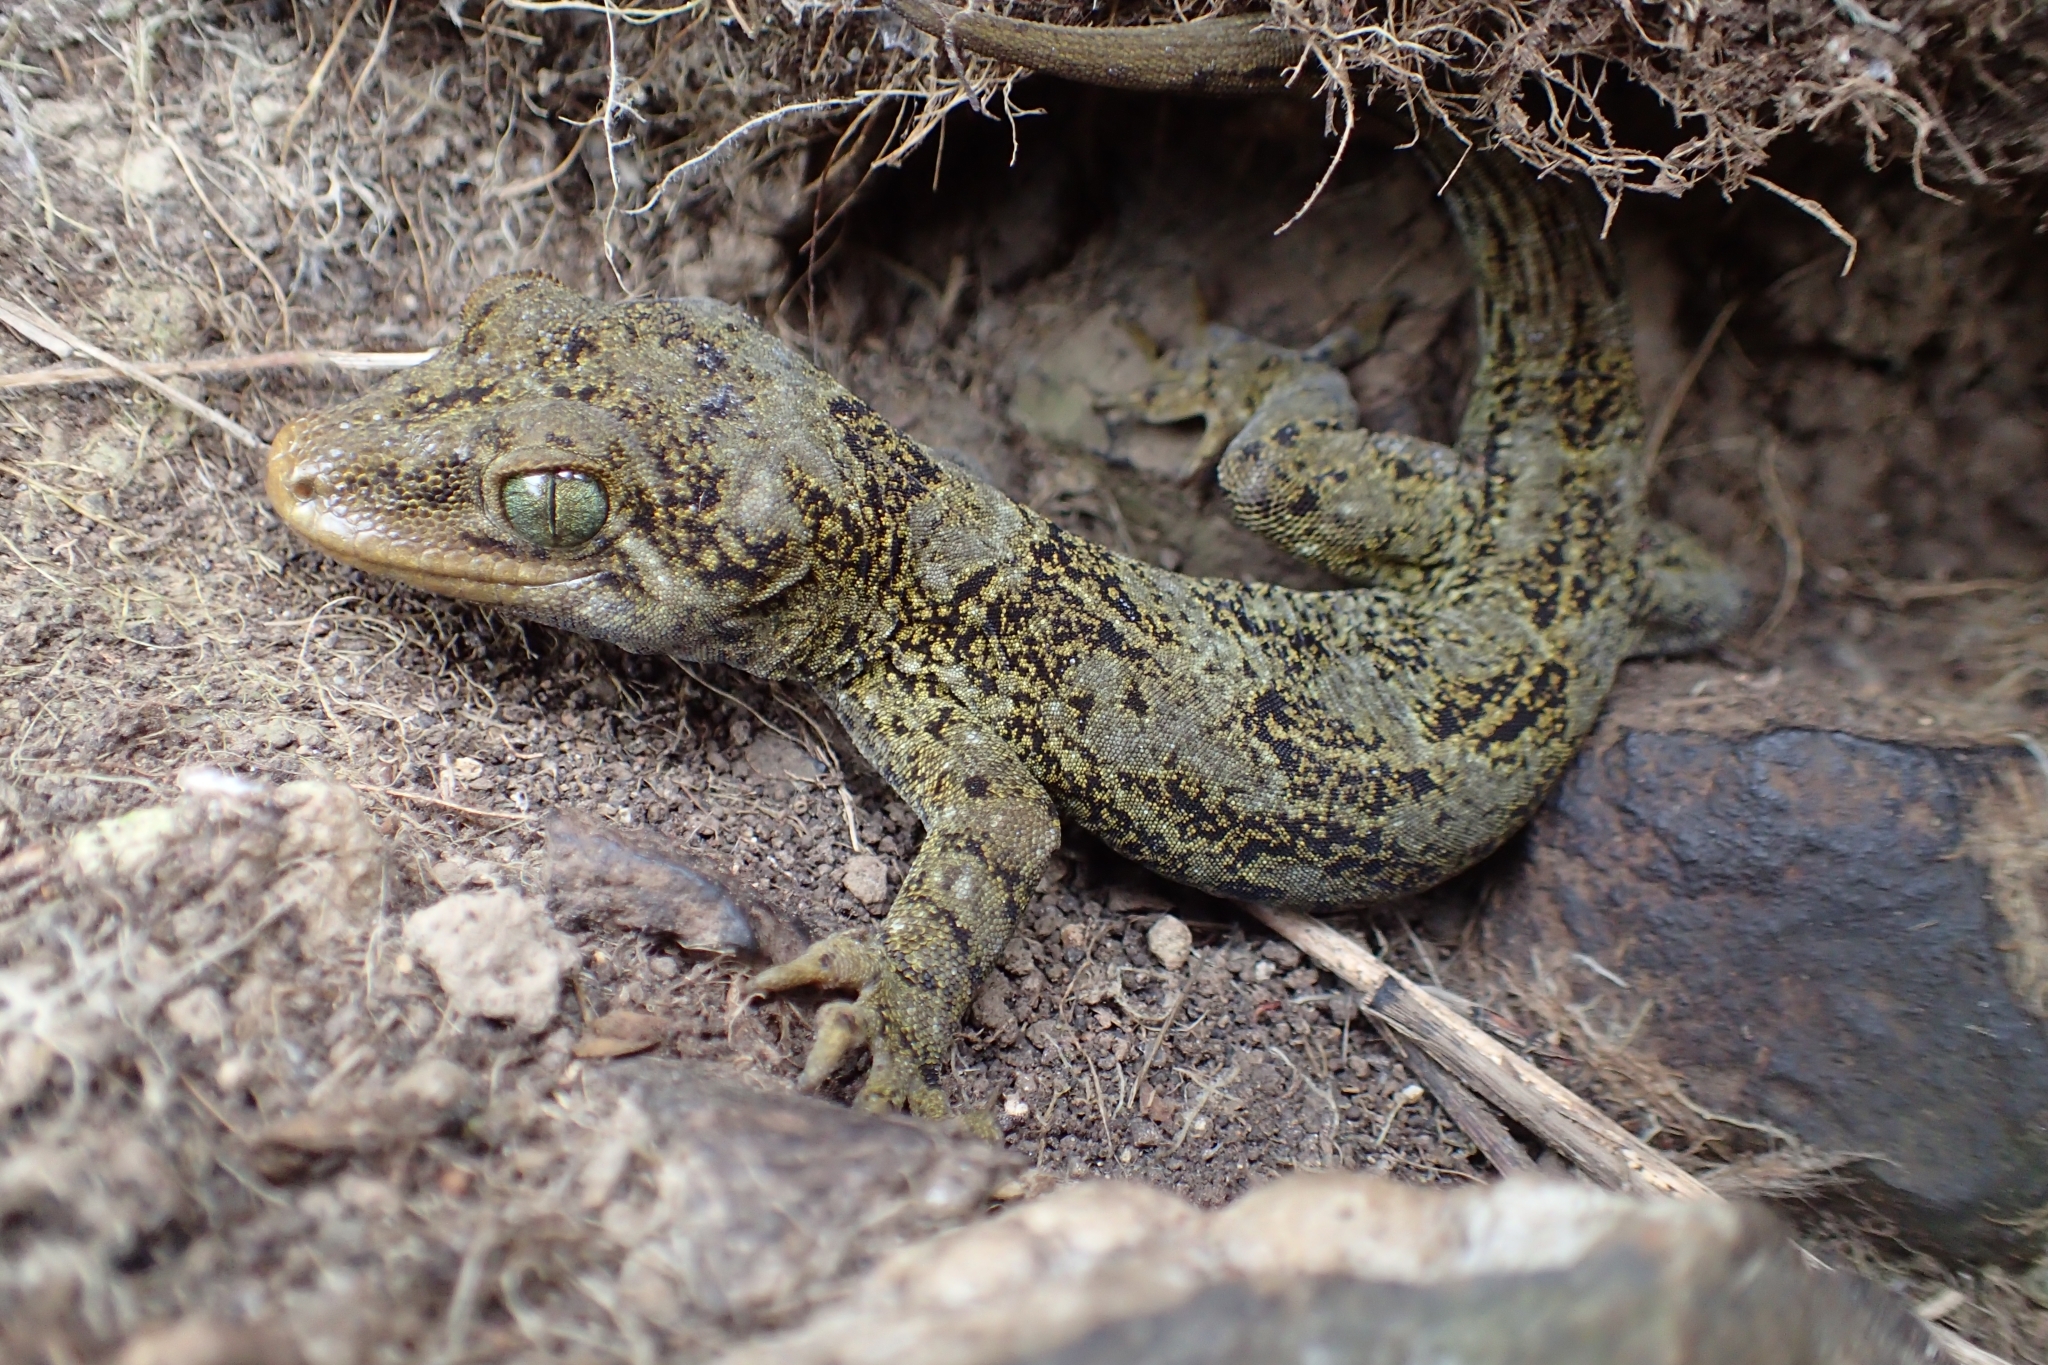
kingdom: Animalia
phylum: Chordata
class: Squamata
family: Diplodactylidae
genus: Hoplodactylus
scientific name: Hoplodactylus duvaucelii
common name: Duvaucel's gecko
